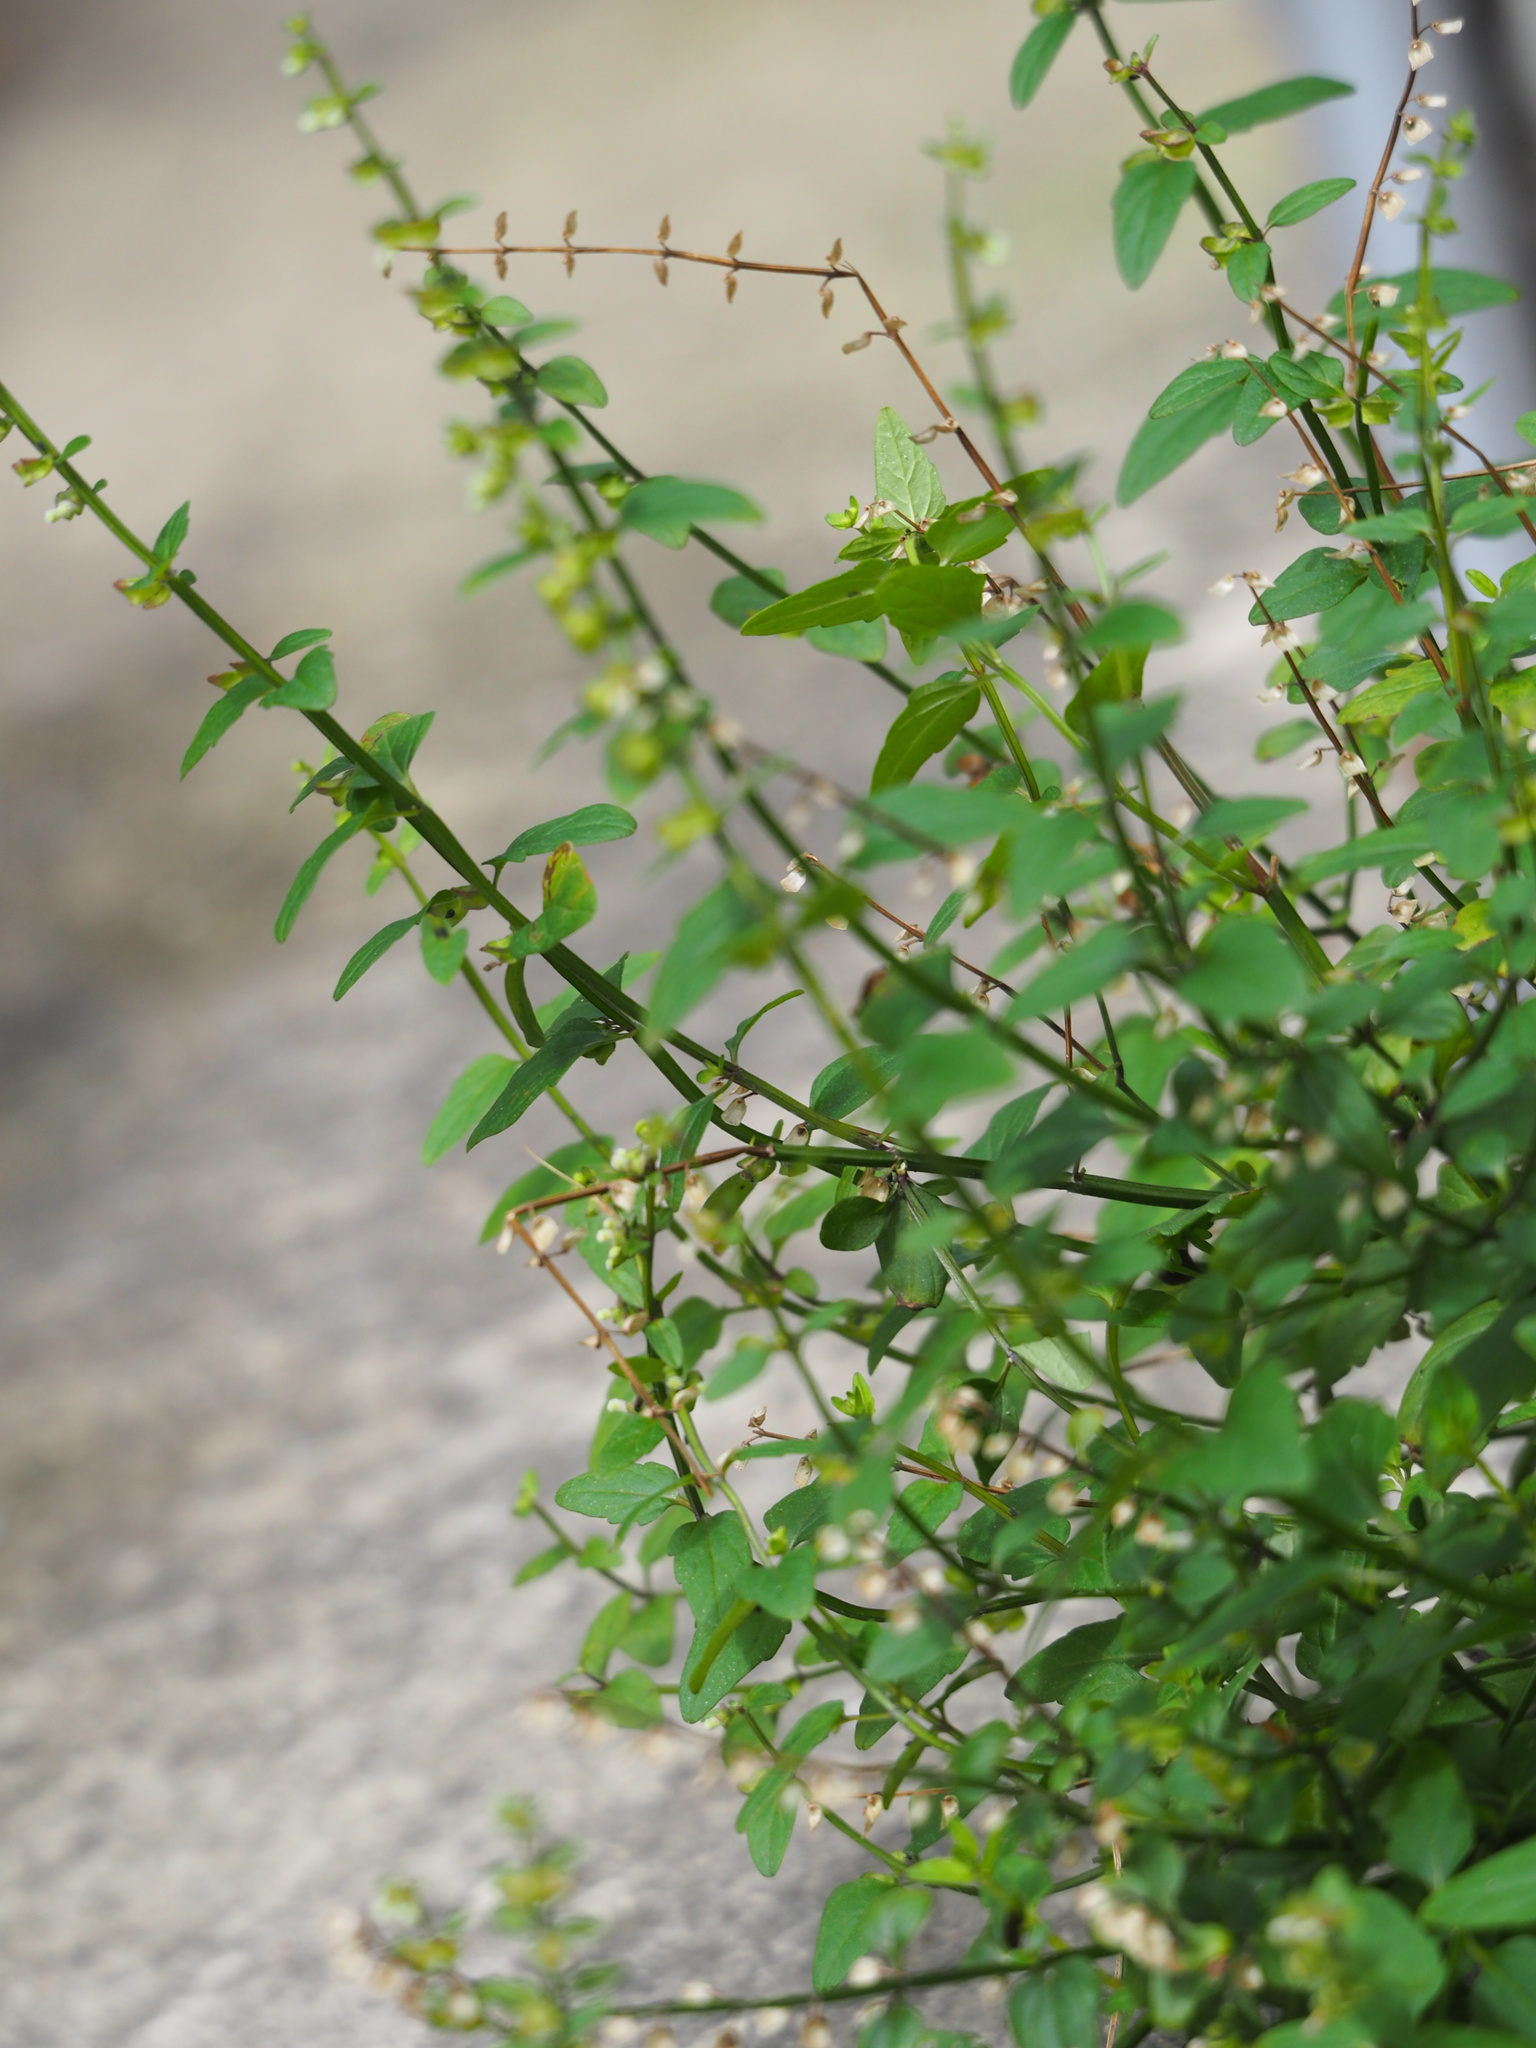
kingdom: Plantae
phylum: Tracheophyta
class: Magnoliopsida
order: Lamiales
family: Lamiaceae
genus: Scutellaria
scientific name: Scutellaria barbata
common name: Barbed skullcap
